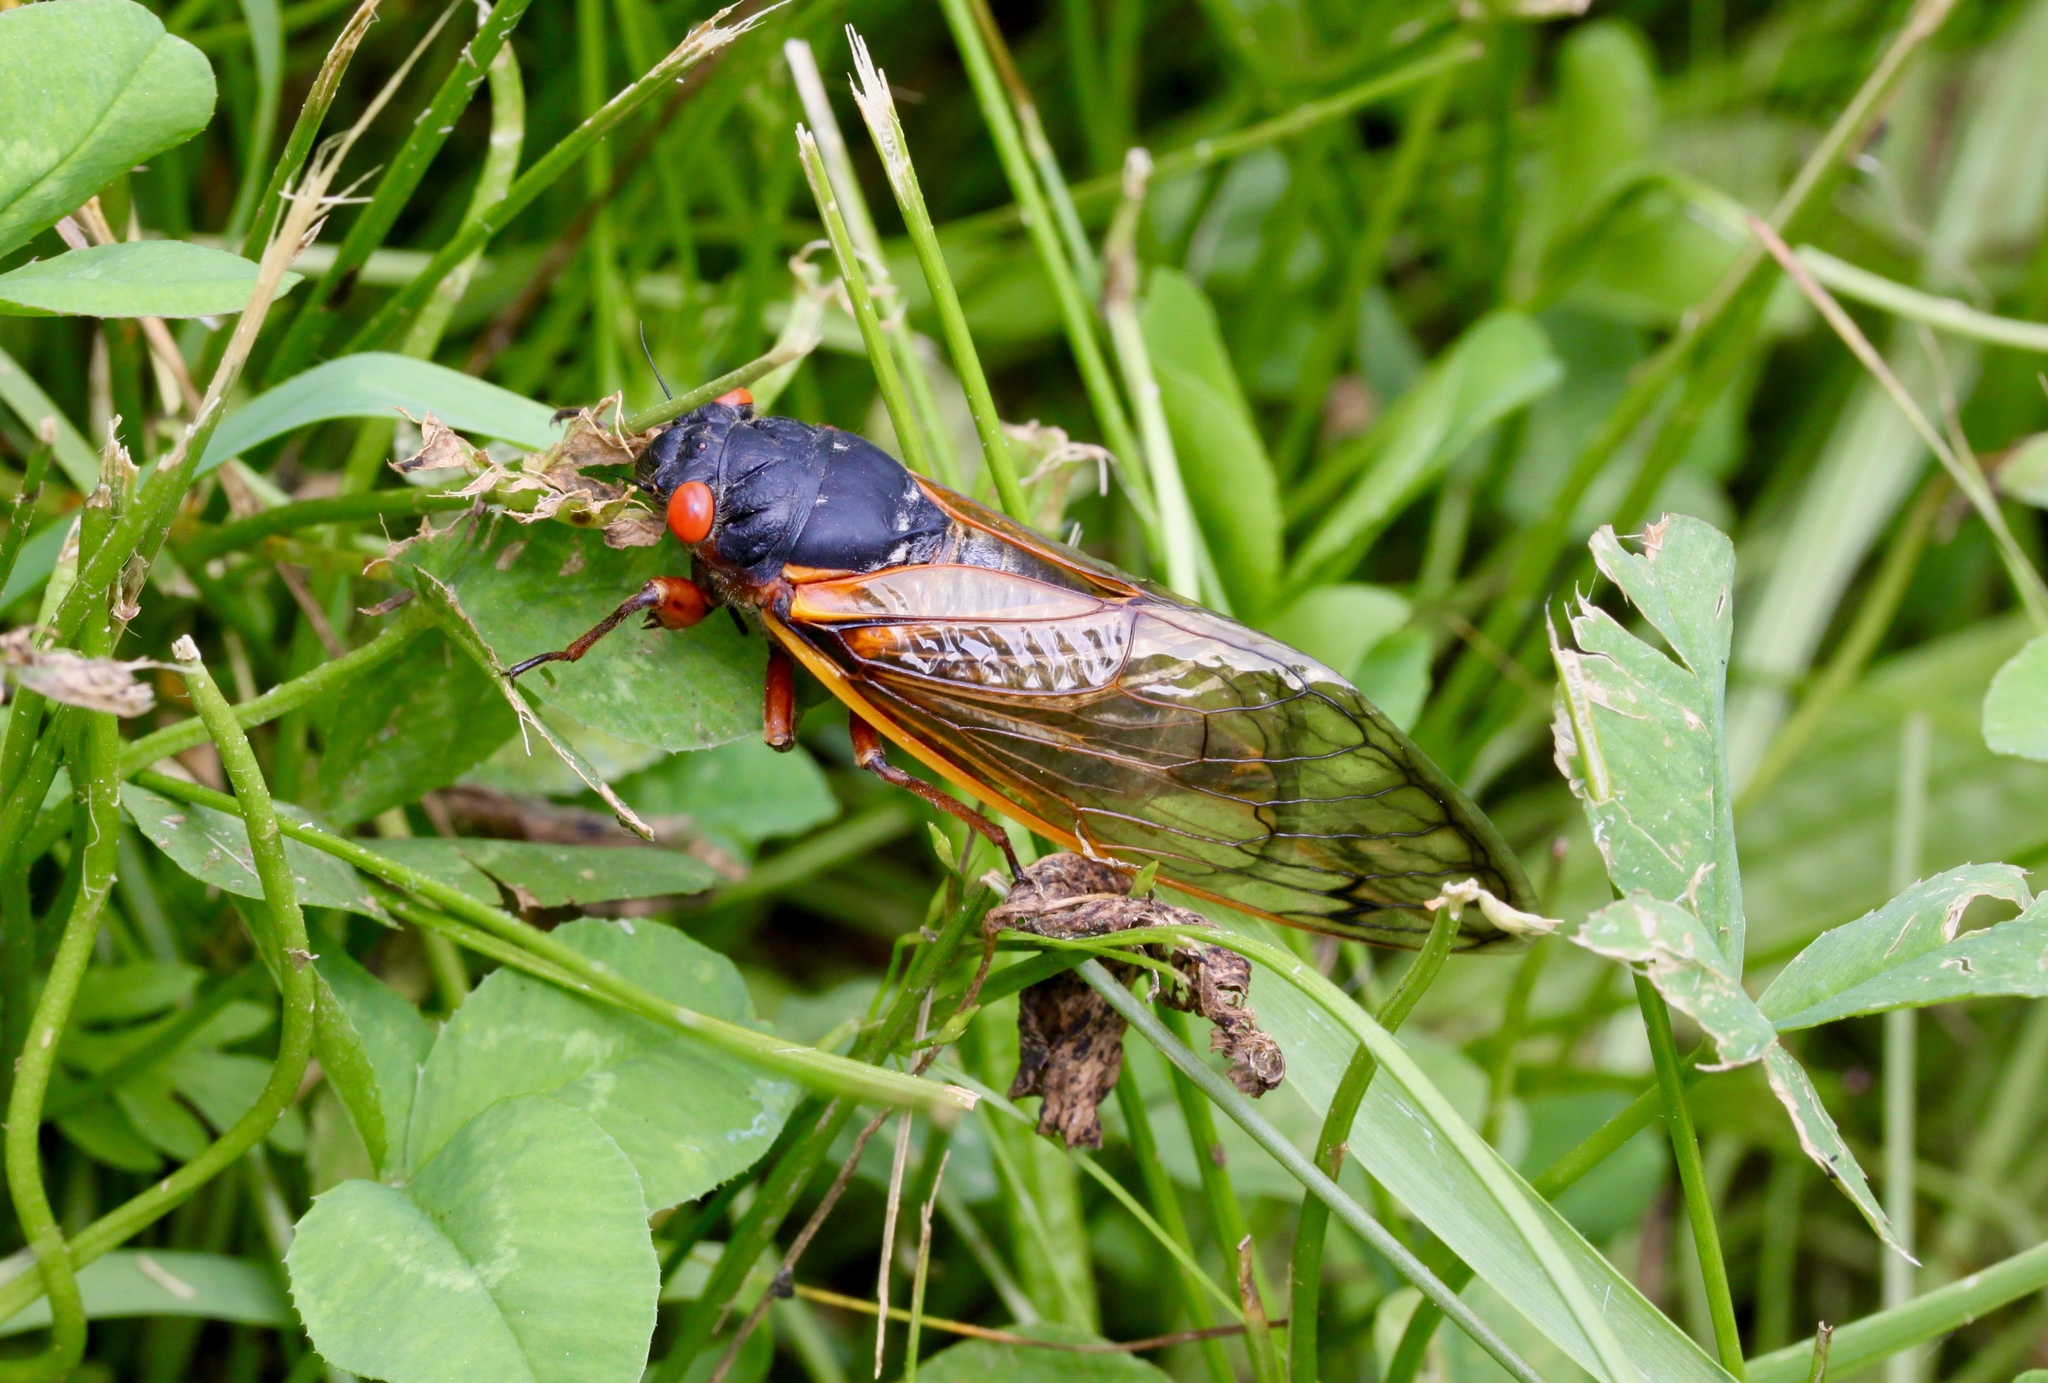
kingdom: Animalia
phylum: Arthropoda
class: Insecta
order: Hemiptera
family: Cicadidae
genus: Magicicada
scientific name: Magicicada septendecim
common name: Periodical cicada
